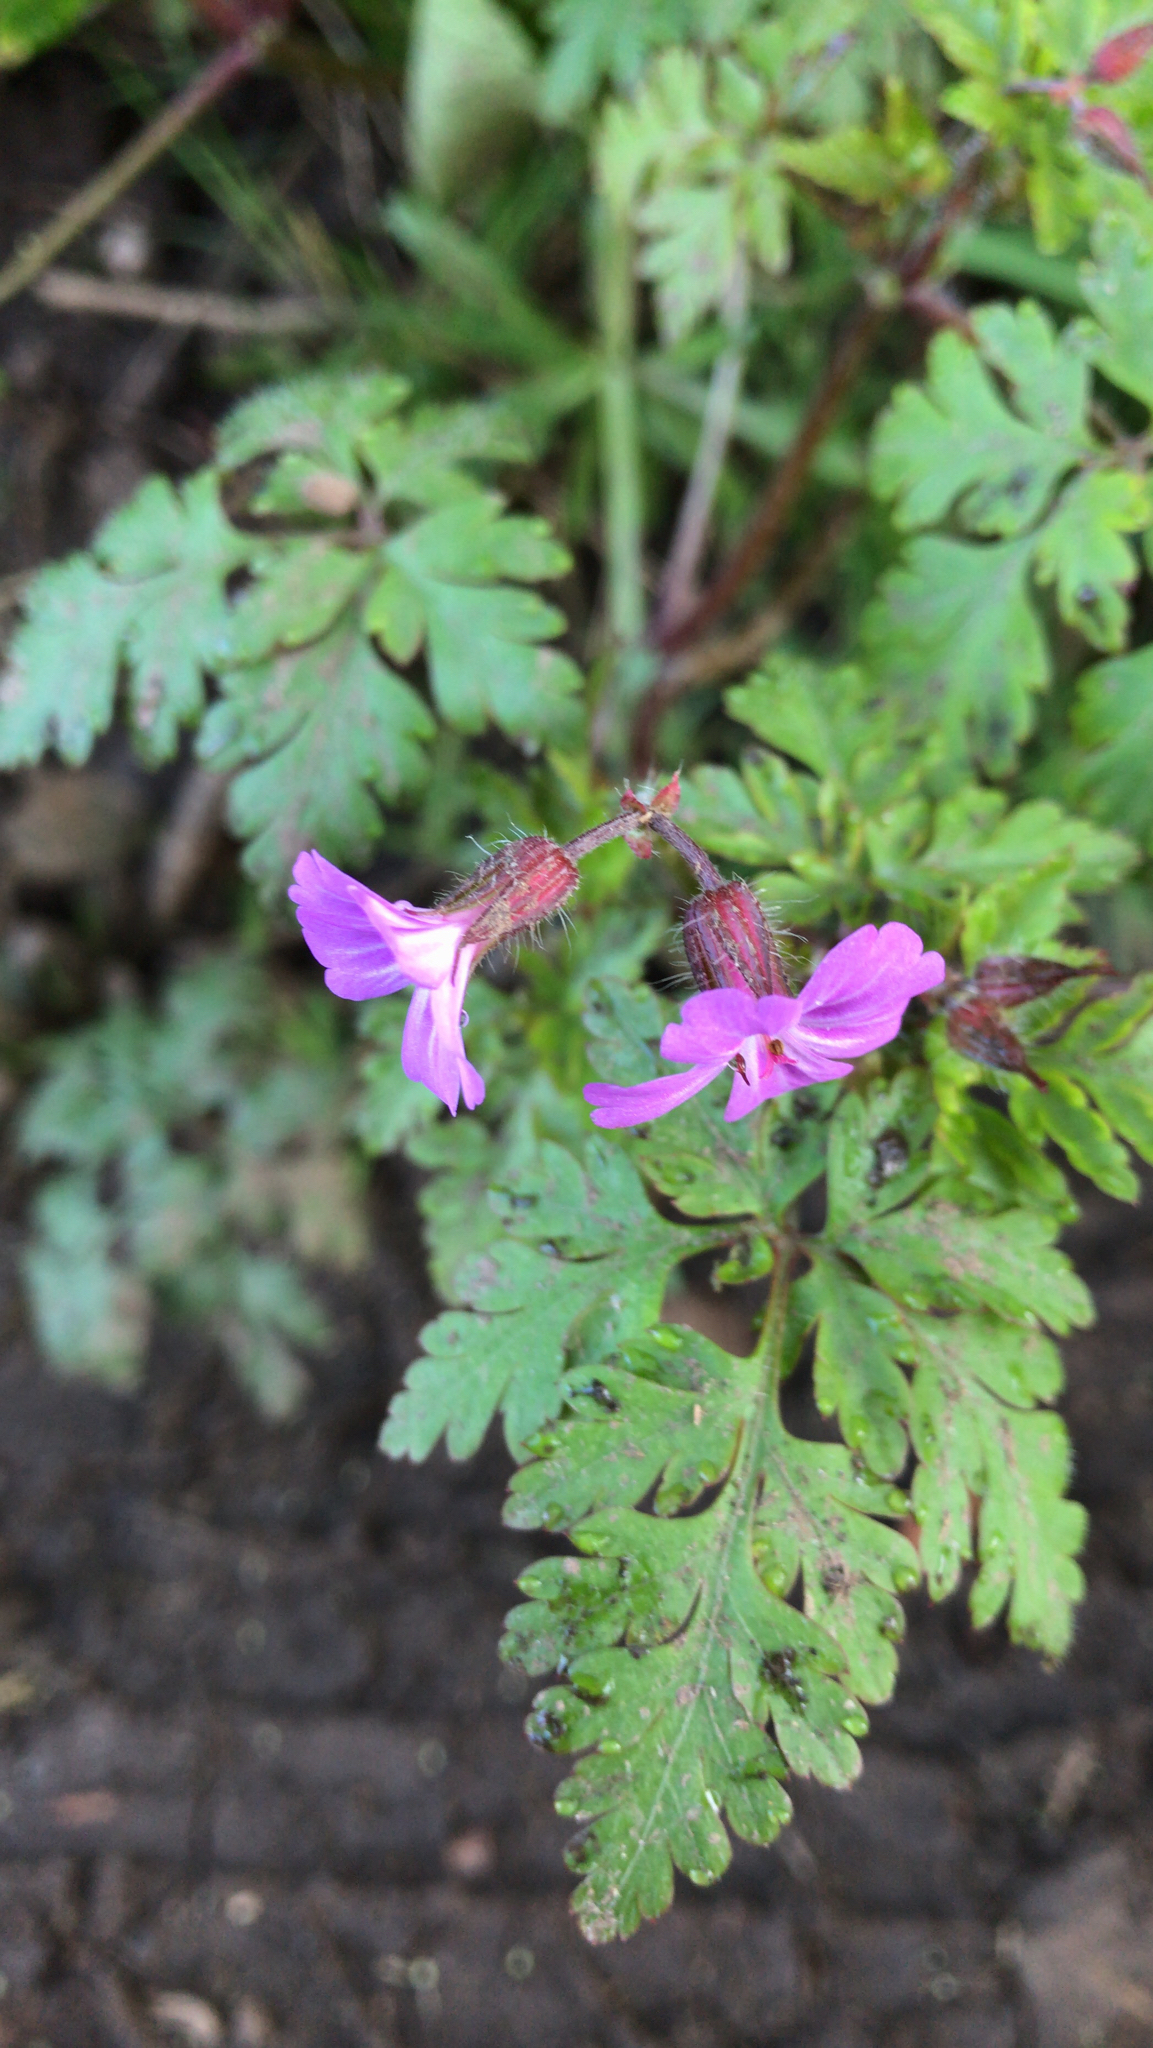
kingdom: Plantae
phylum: Tracheophyta
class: Magnoliopsida
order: Geraniales
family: Geraniaceae
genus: Geranium
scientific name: Geranium robertianum
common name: Herb-robert
